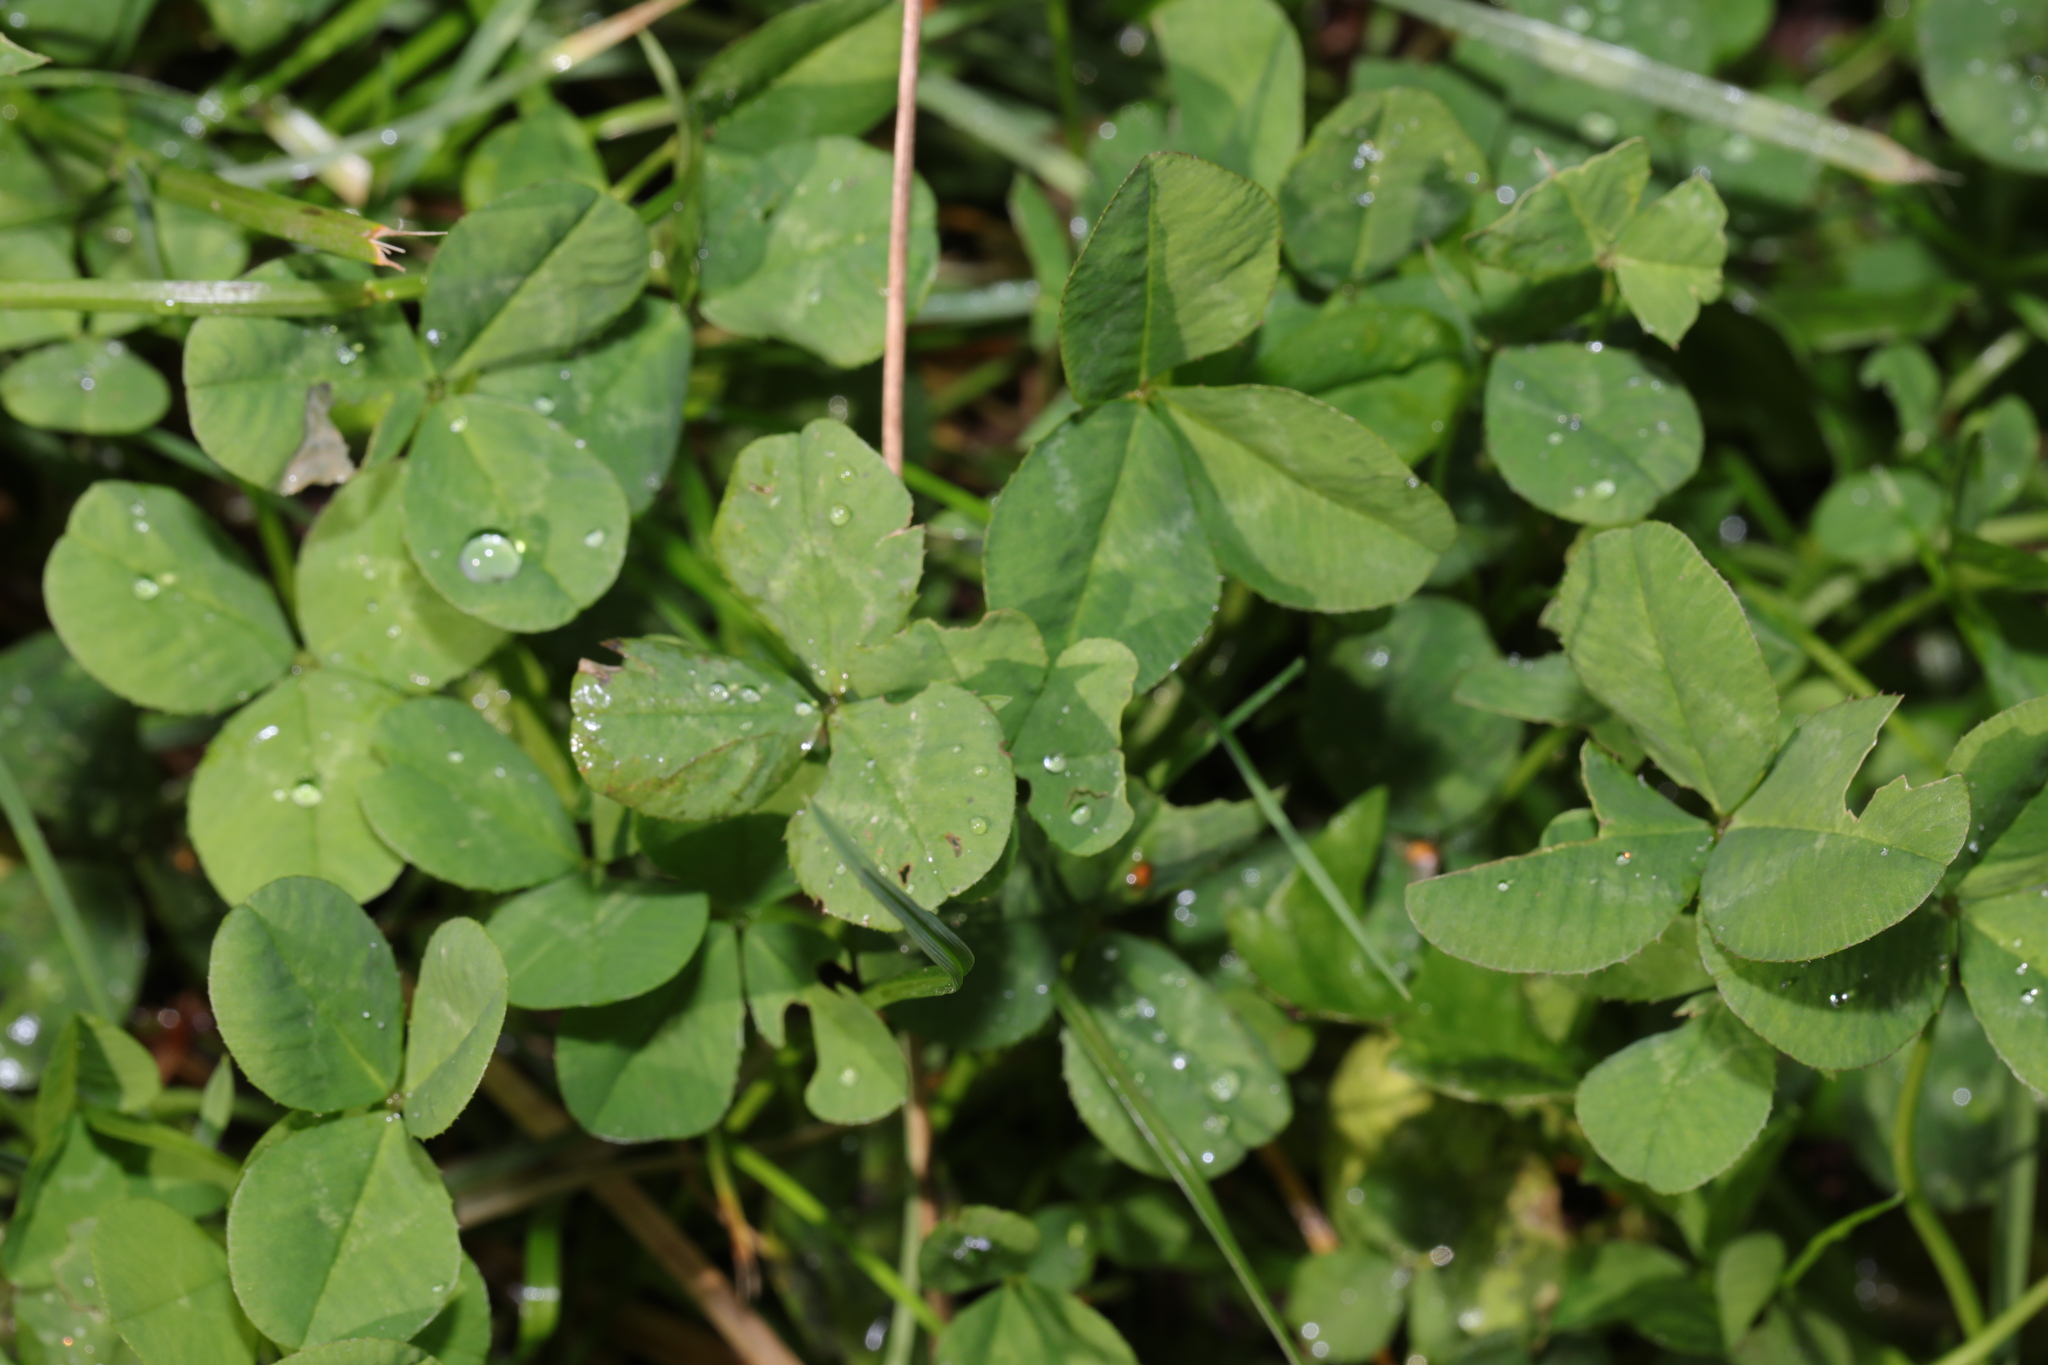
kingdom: Plantae
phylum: Tracheophyta
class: Magnoliopsida
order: Fabales
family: Fabaceae
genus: Trifolium
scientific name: Trifolium repens
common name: White clover
